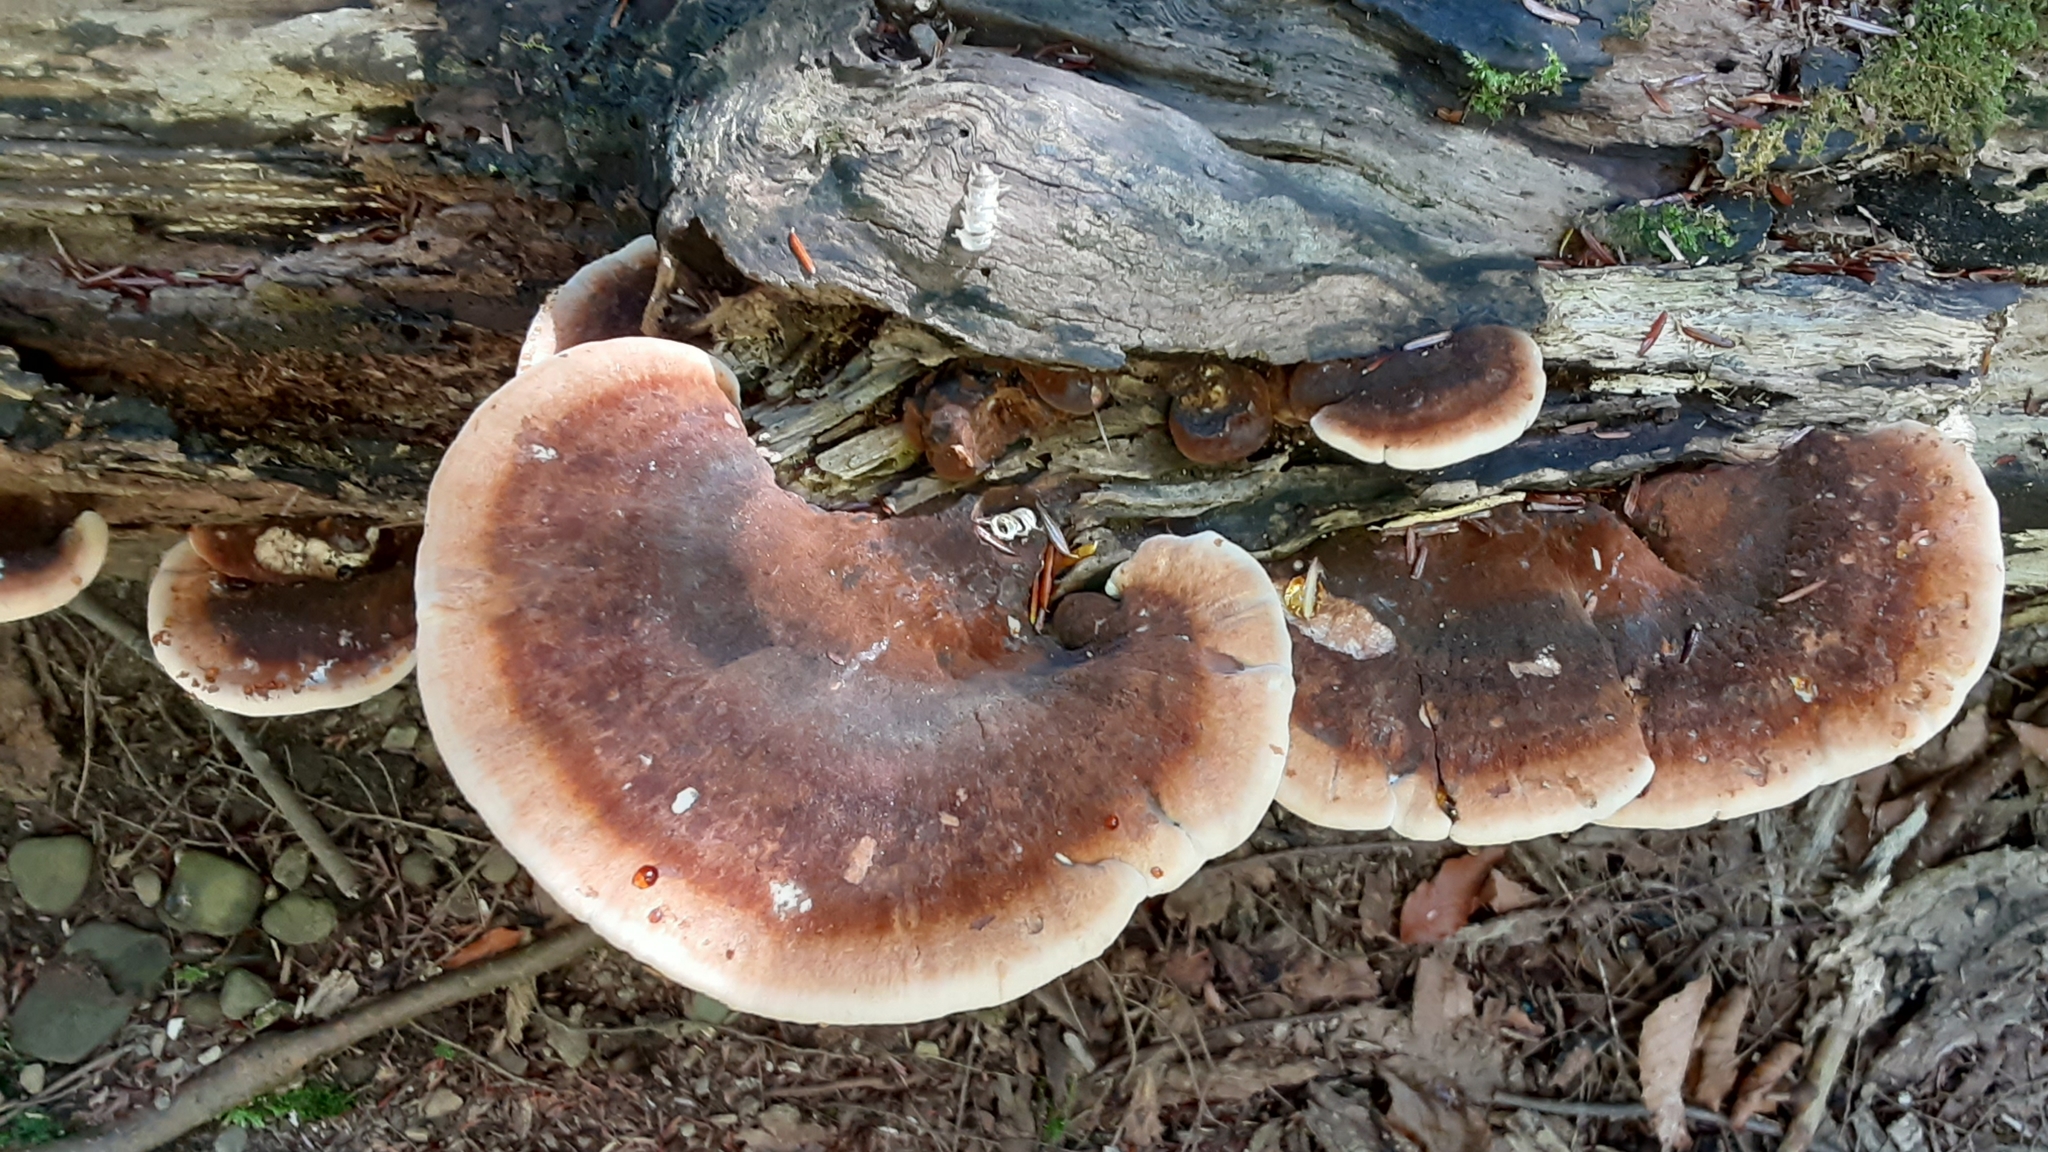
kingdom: Fungi
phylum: Basidiomycota
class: Agaricomycetes
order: Polyporales
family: Ischnodermataceae
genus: Ischnoderma
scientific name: Ischnoderma resinosum
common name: Resinous polypore
